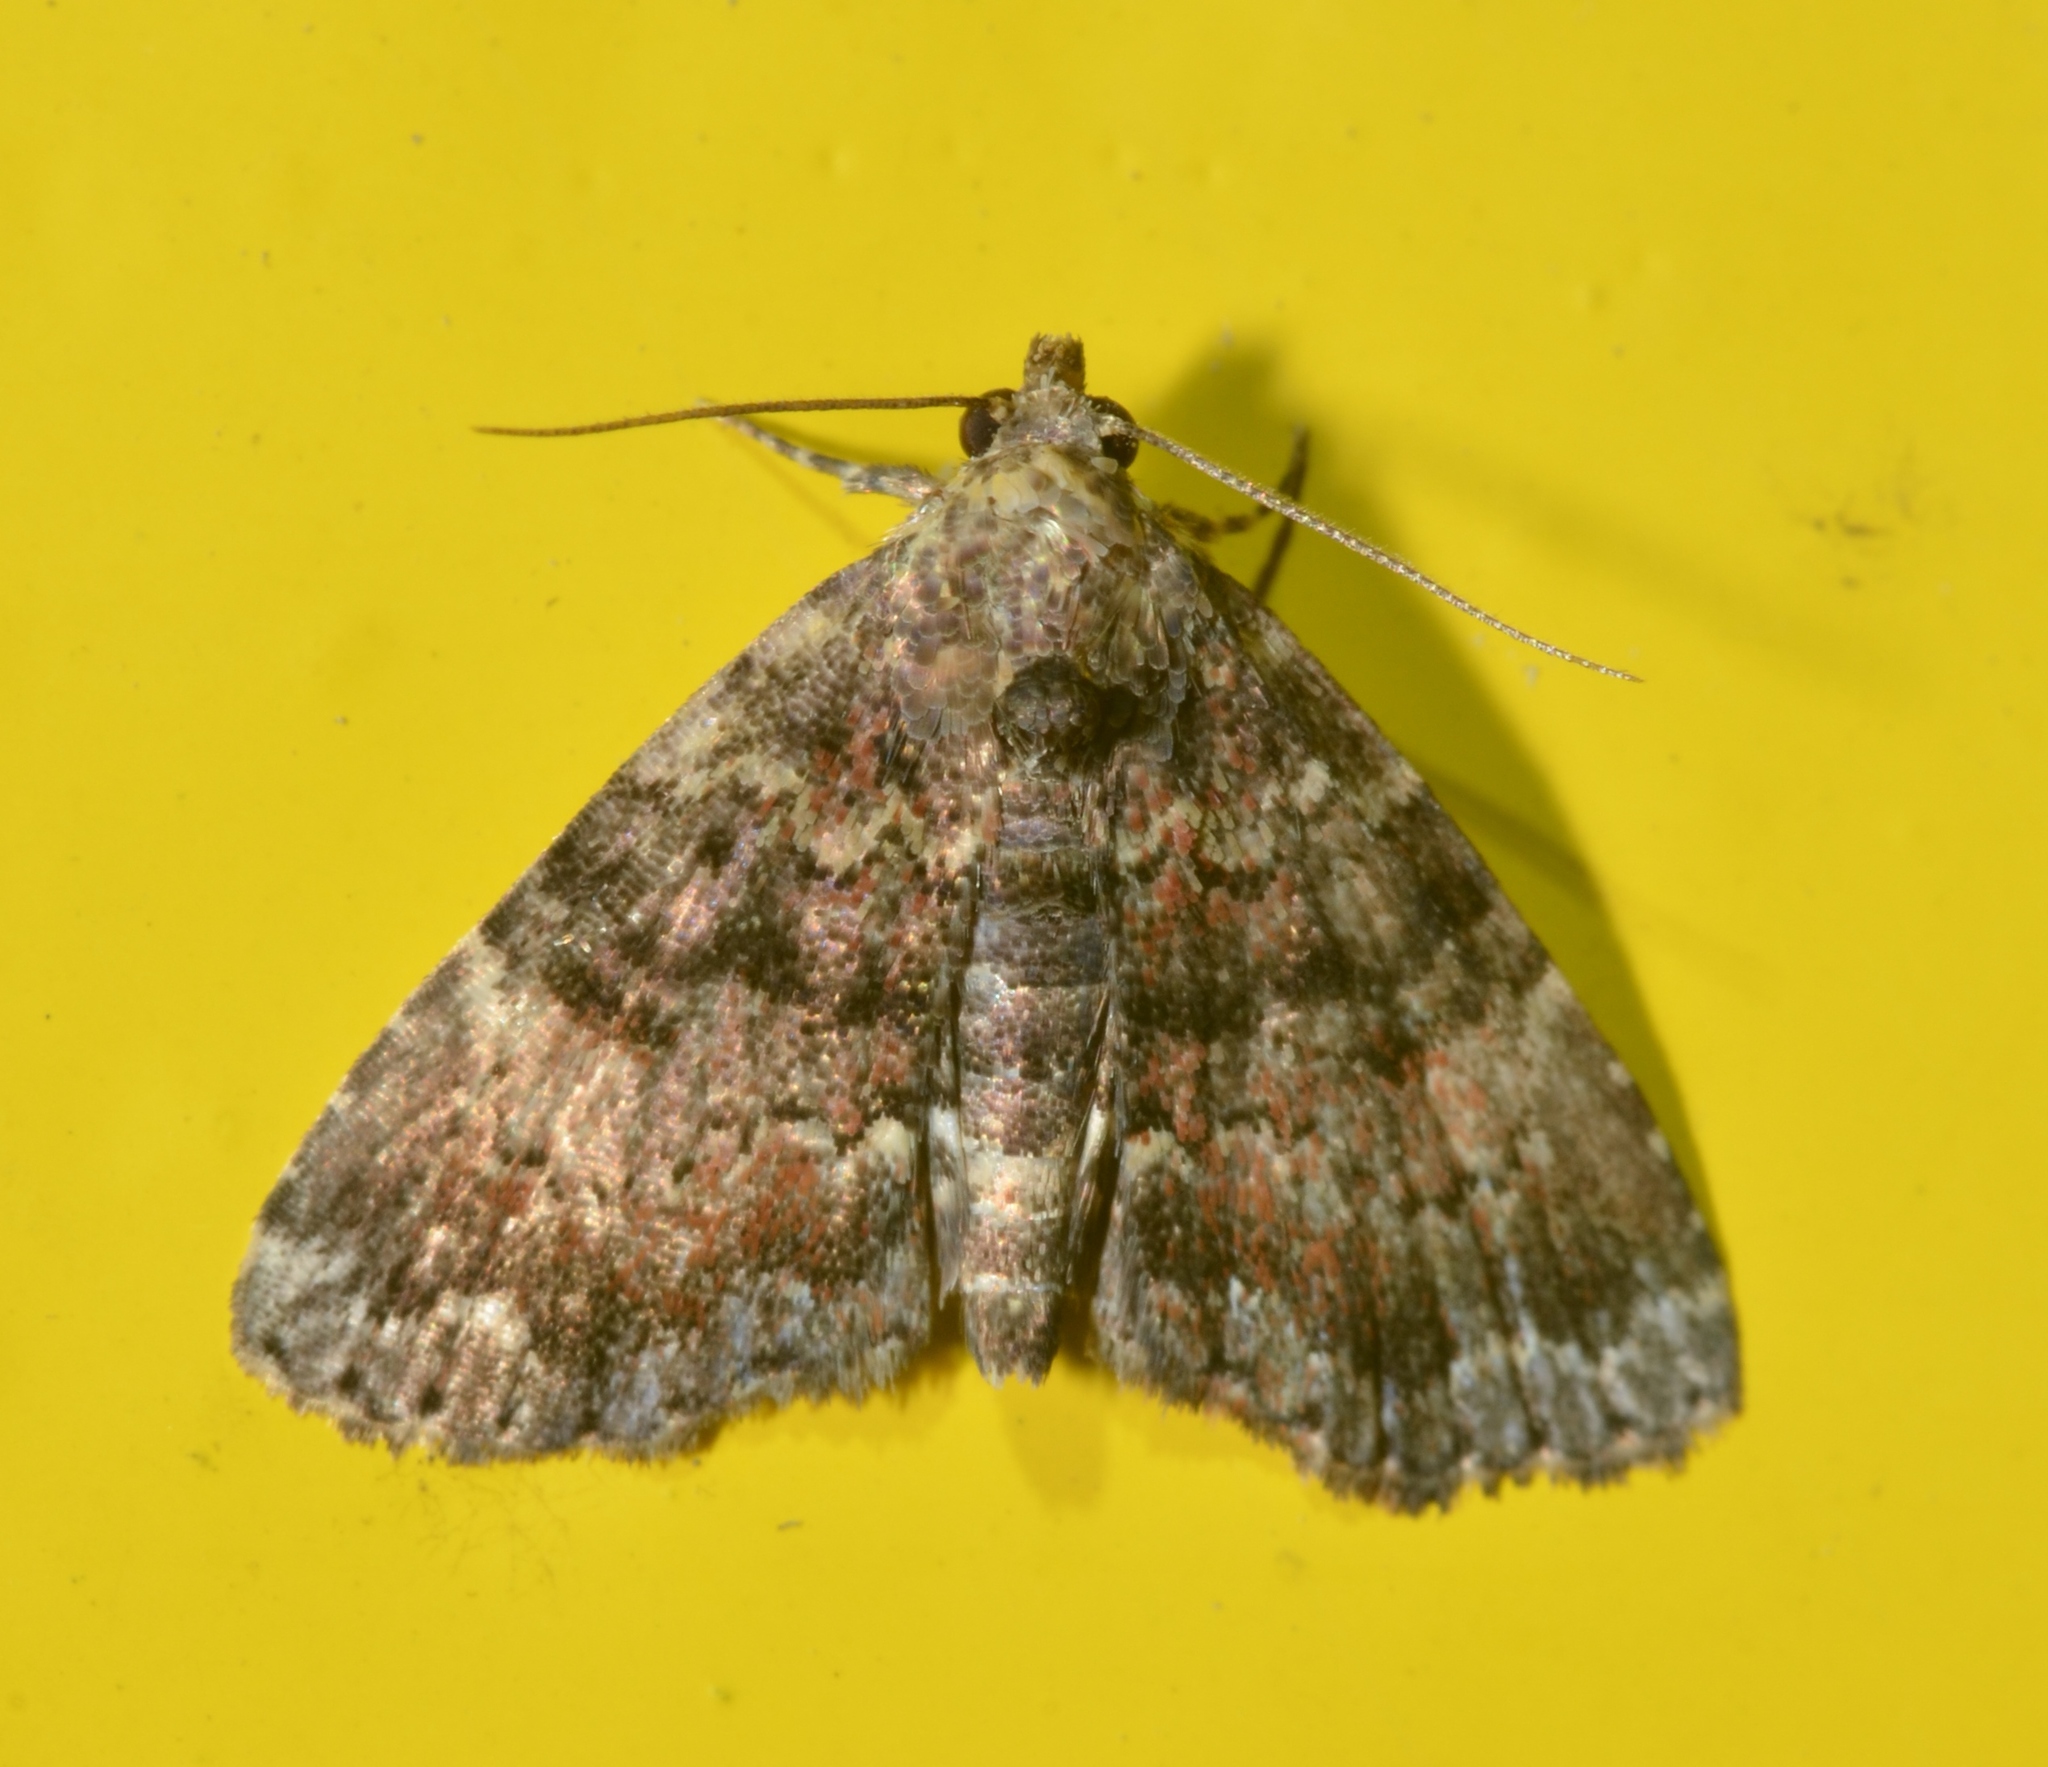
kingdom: Animalia
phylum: Arthropoda
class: Insecta
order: Lepidoptera
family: Erebidae
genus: Metalectra
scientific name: Metalectra richardsi
